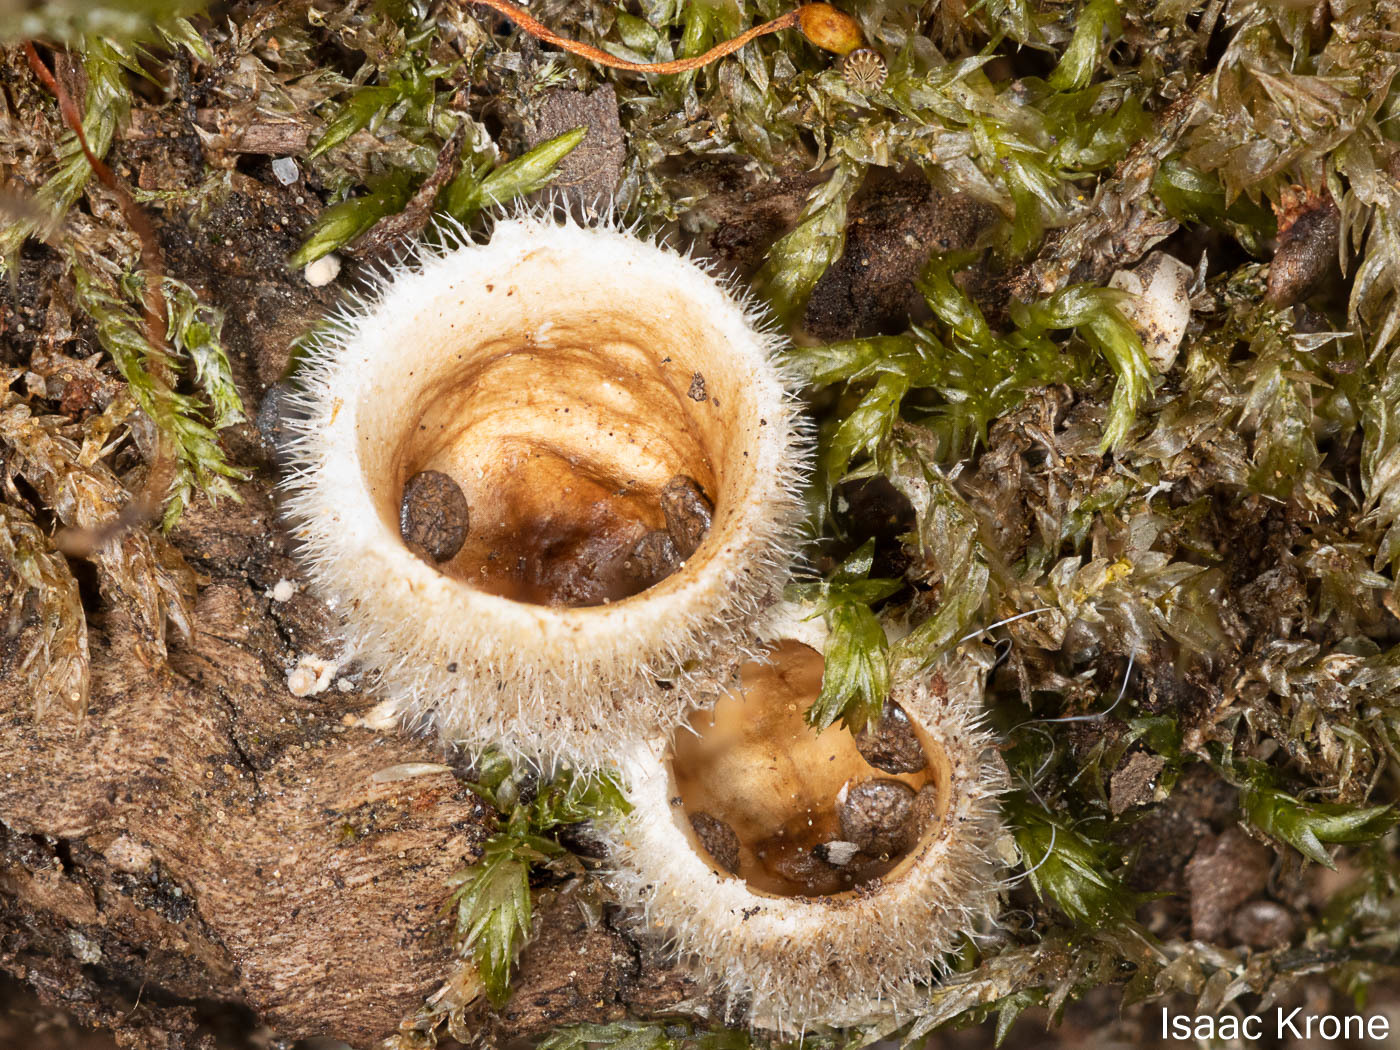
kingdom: Fungi
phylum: Basidiomycota
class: Agaricomycetes
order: Agaricales
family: Agaricaceae
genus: Nidula
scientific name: Nidula niveotomentosa
